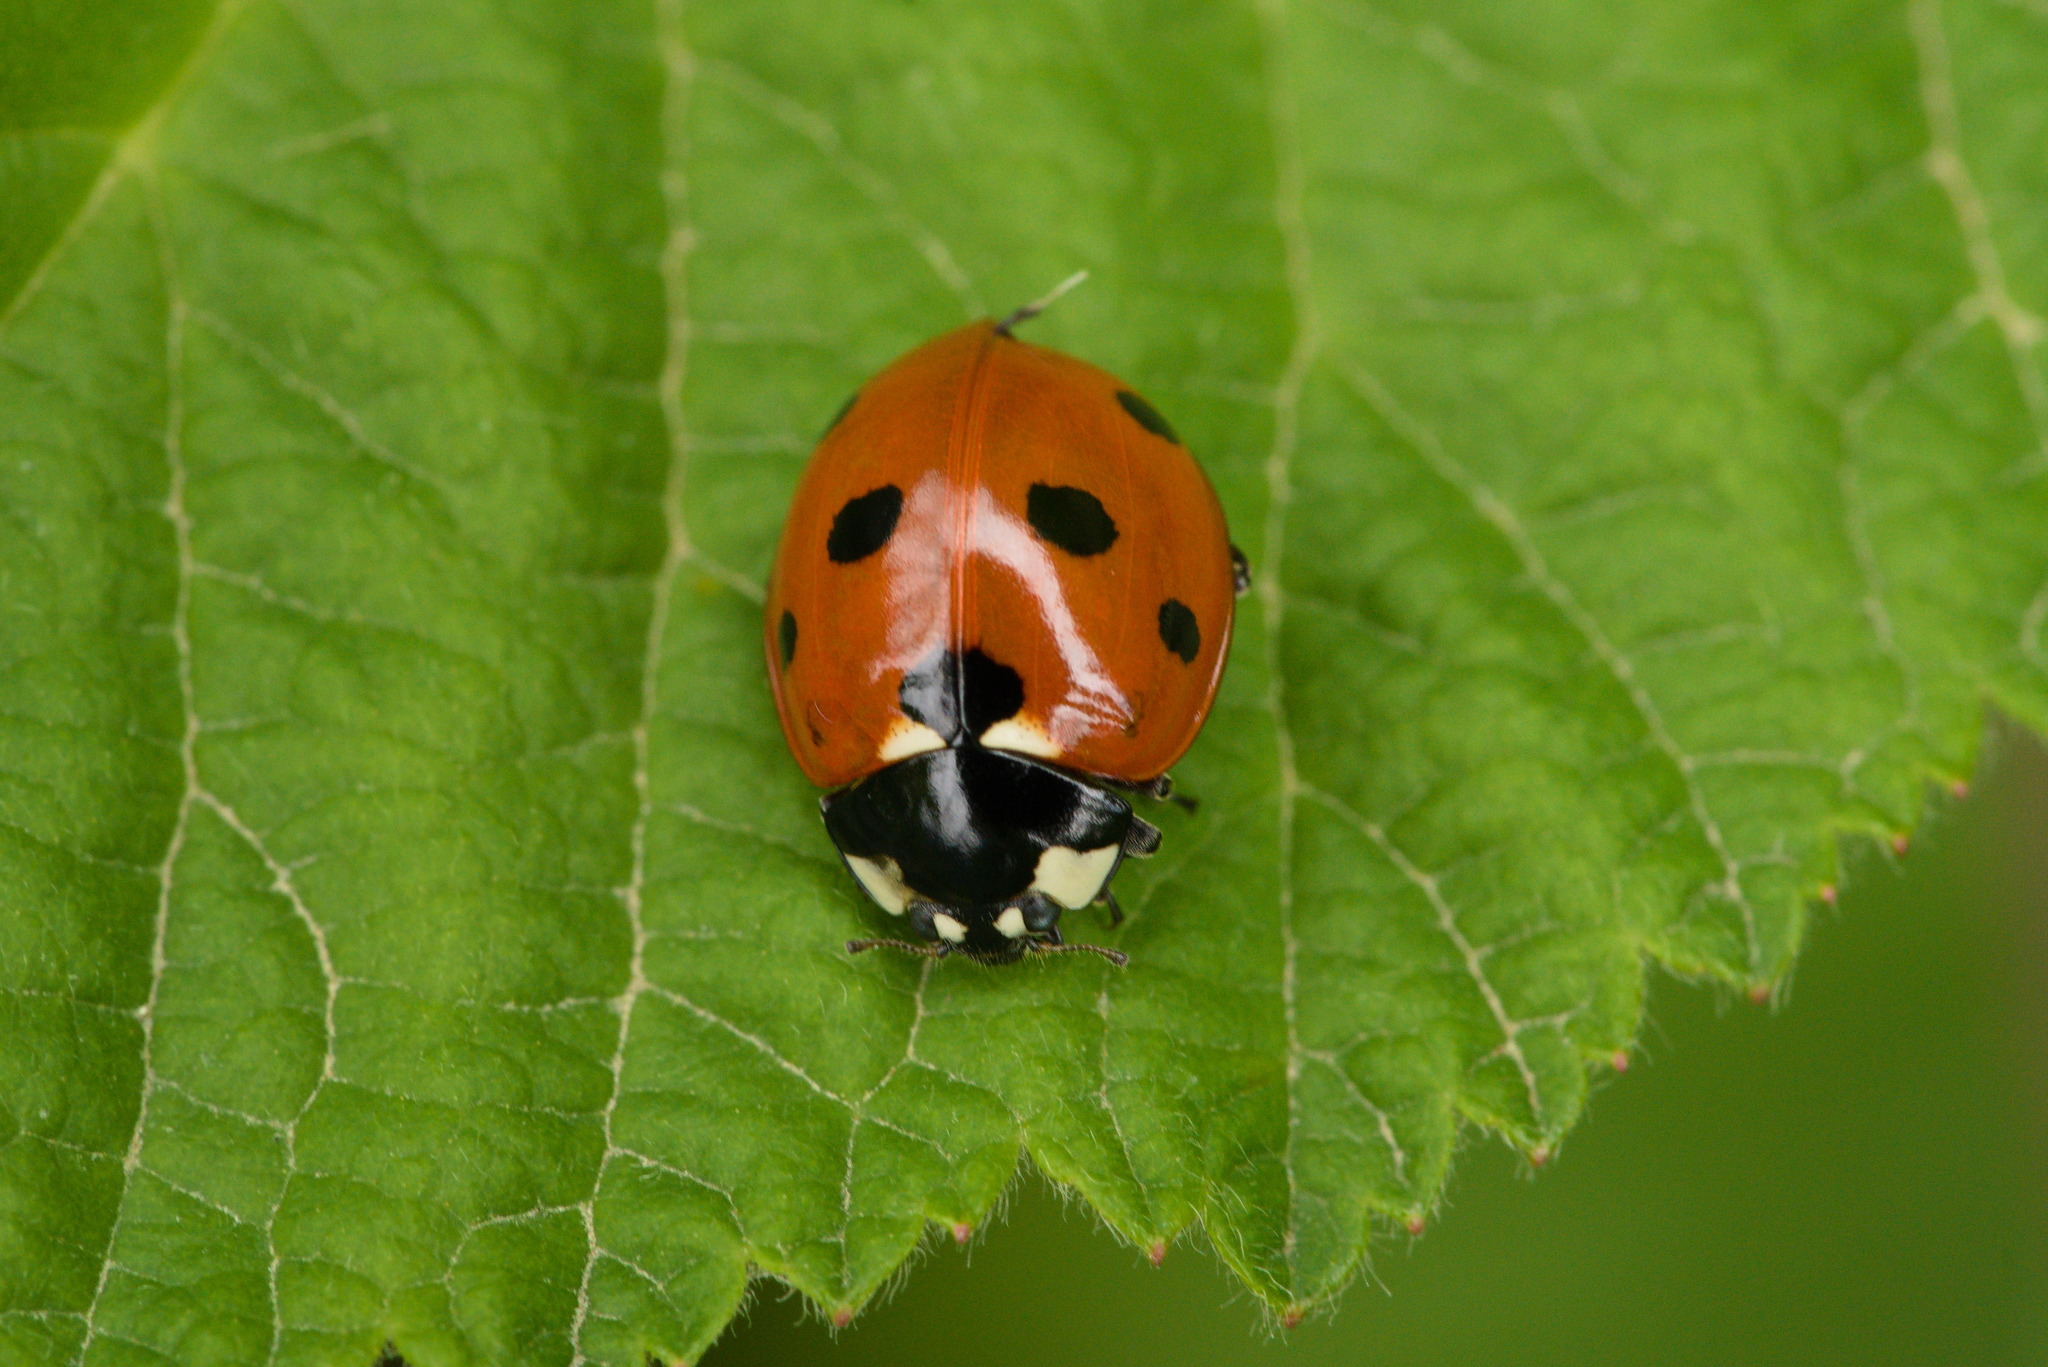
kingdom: Animalia
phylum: Arthropoda
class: Insecta
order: Coleoptera
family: Coccinellidae
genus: Coccinella
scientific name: Coccinella septempunctata
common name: Sevenspotted lady beetle
